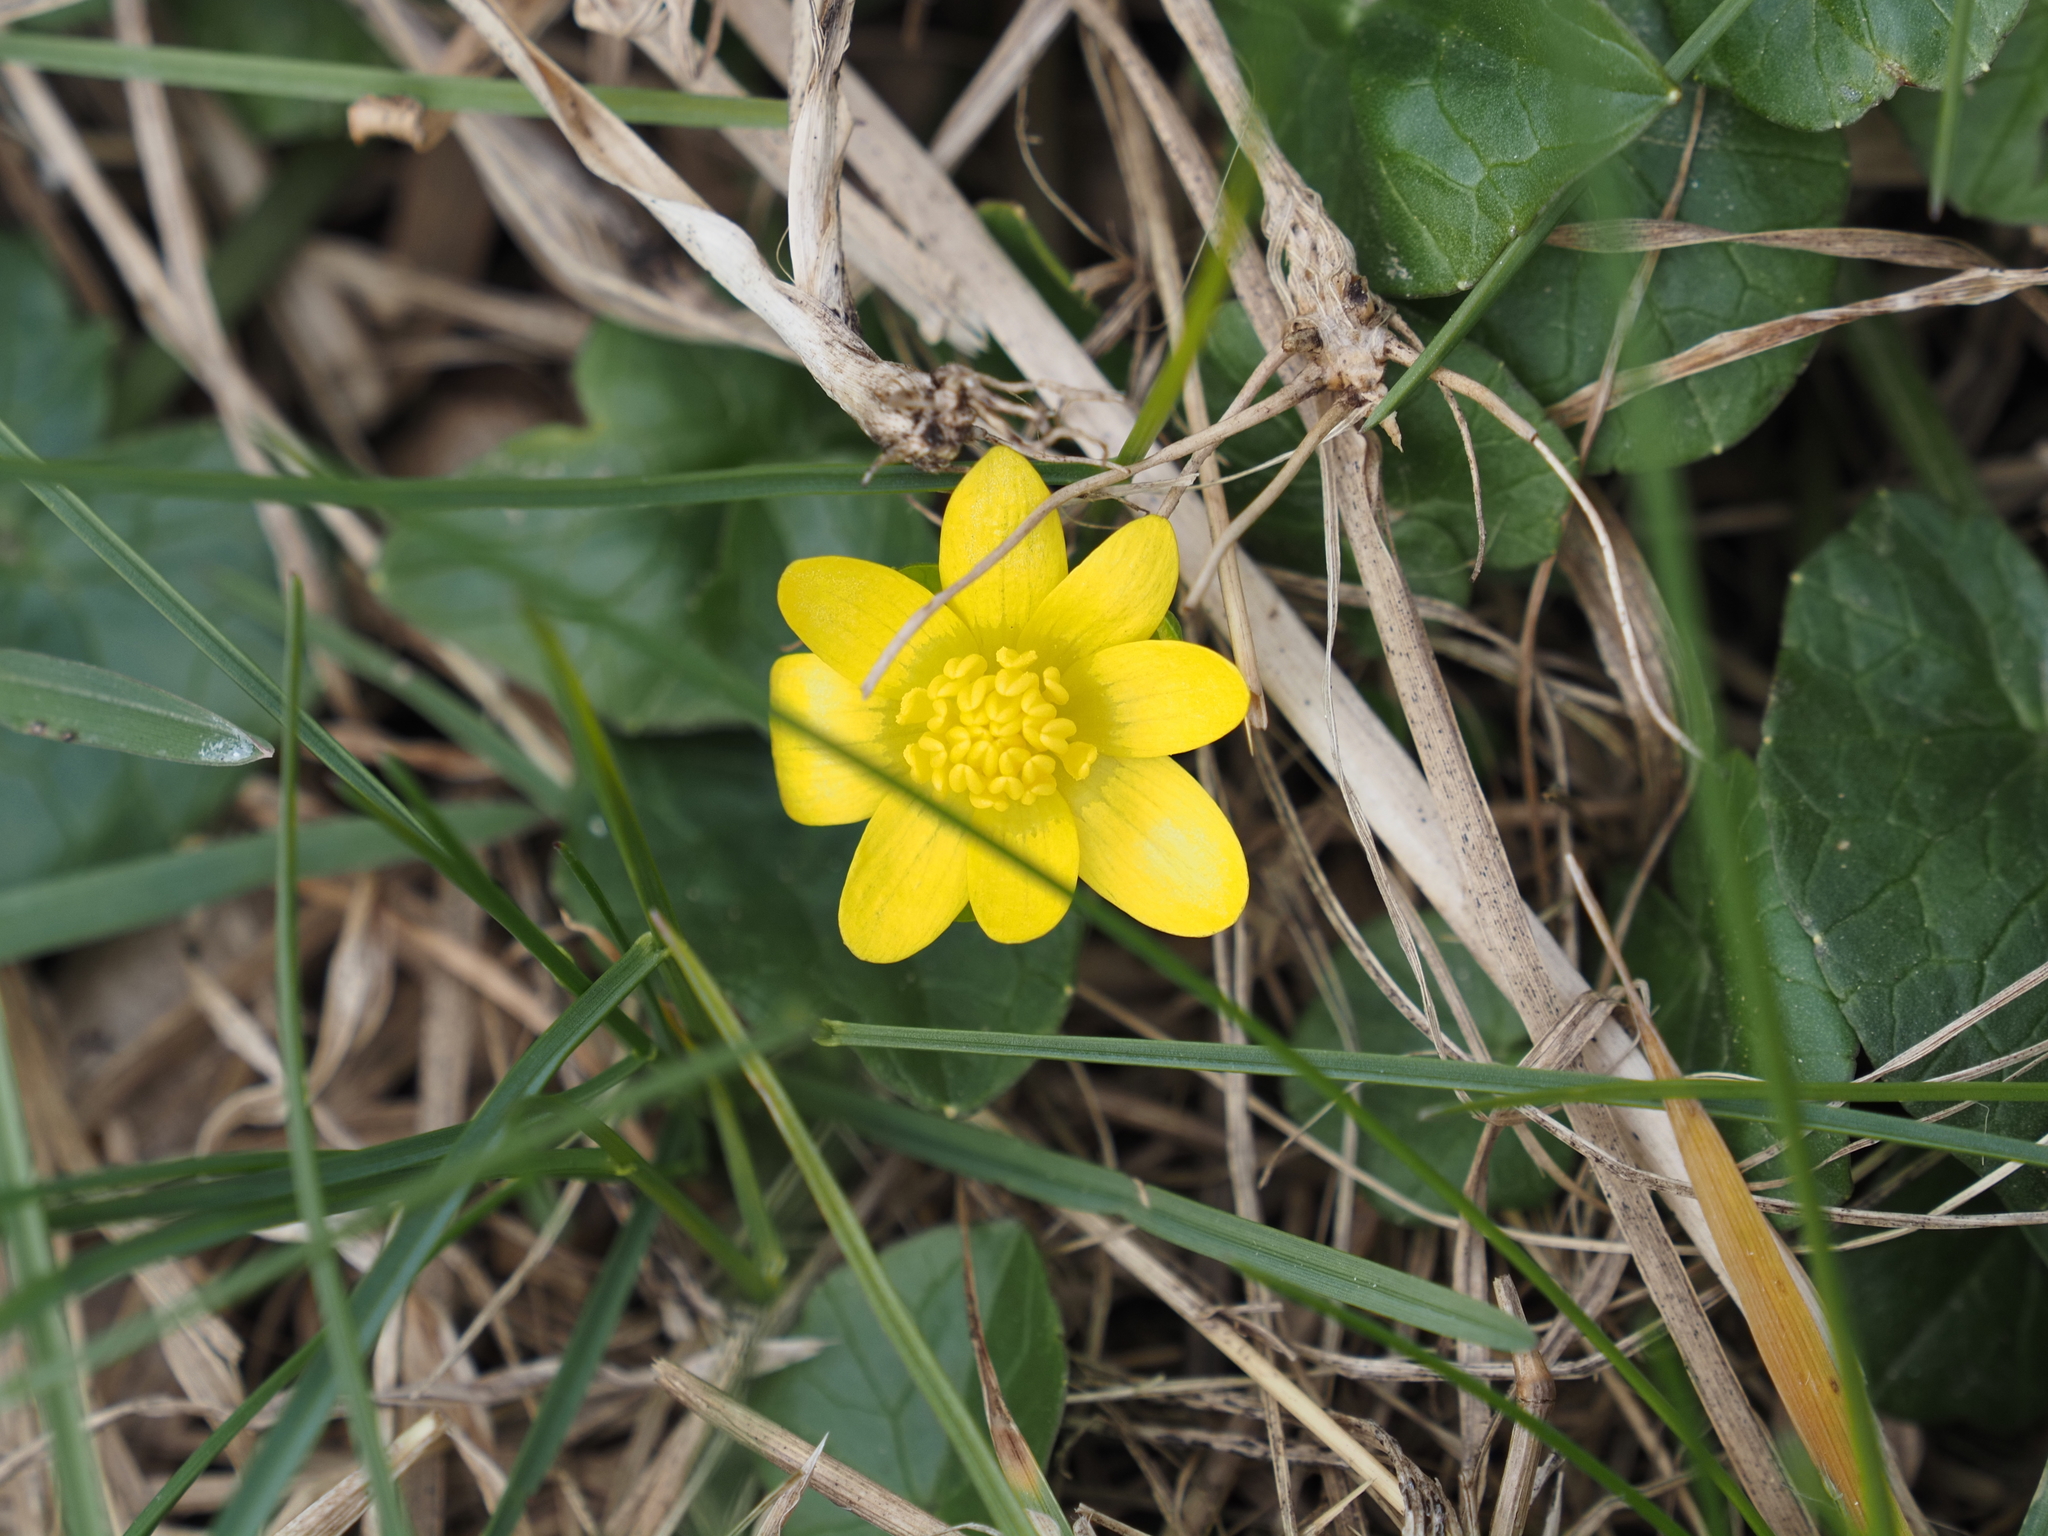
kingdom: Plantae
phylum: Tracheophyta
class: Magnoliopsida
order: Ranunculales
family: Ranunculaceae
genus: Ficaria
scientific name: Ficaria verna
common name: Lesser celandine
